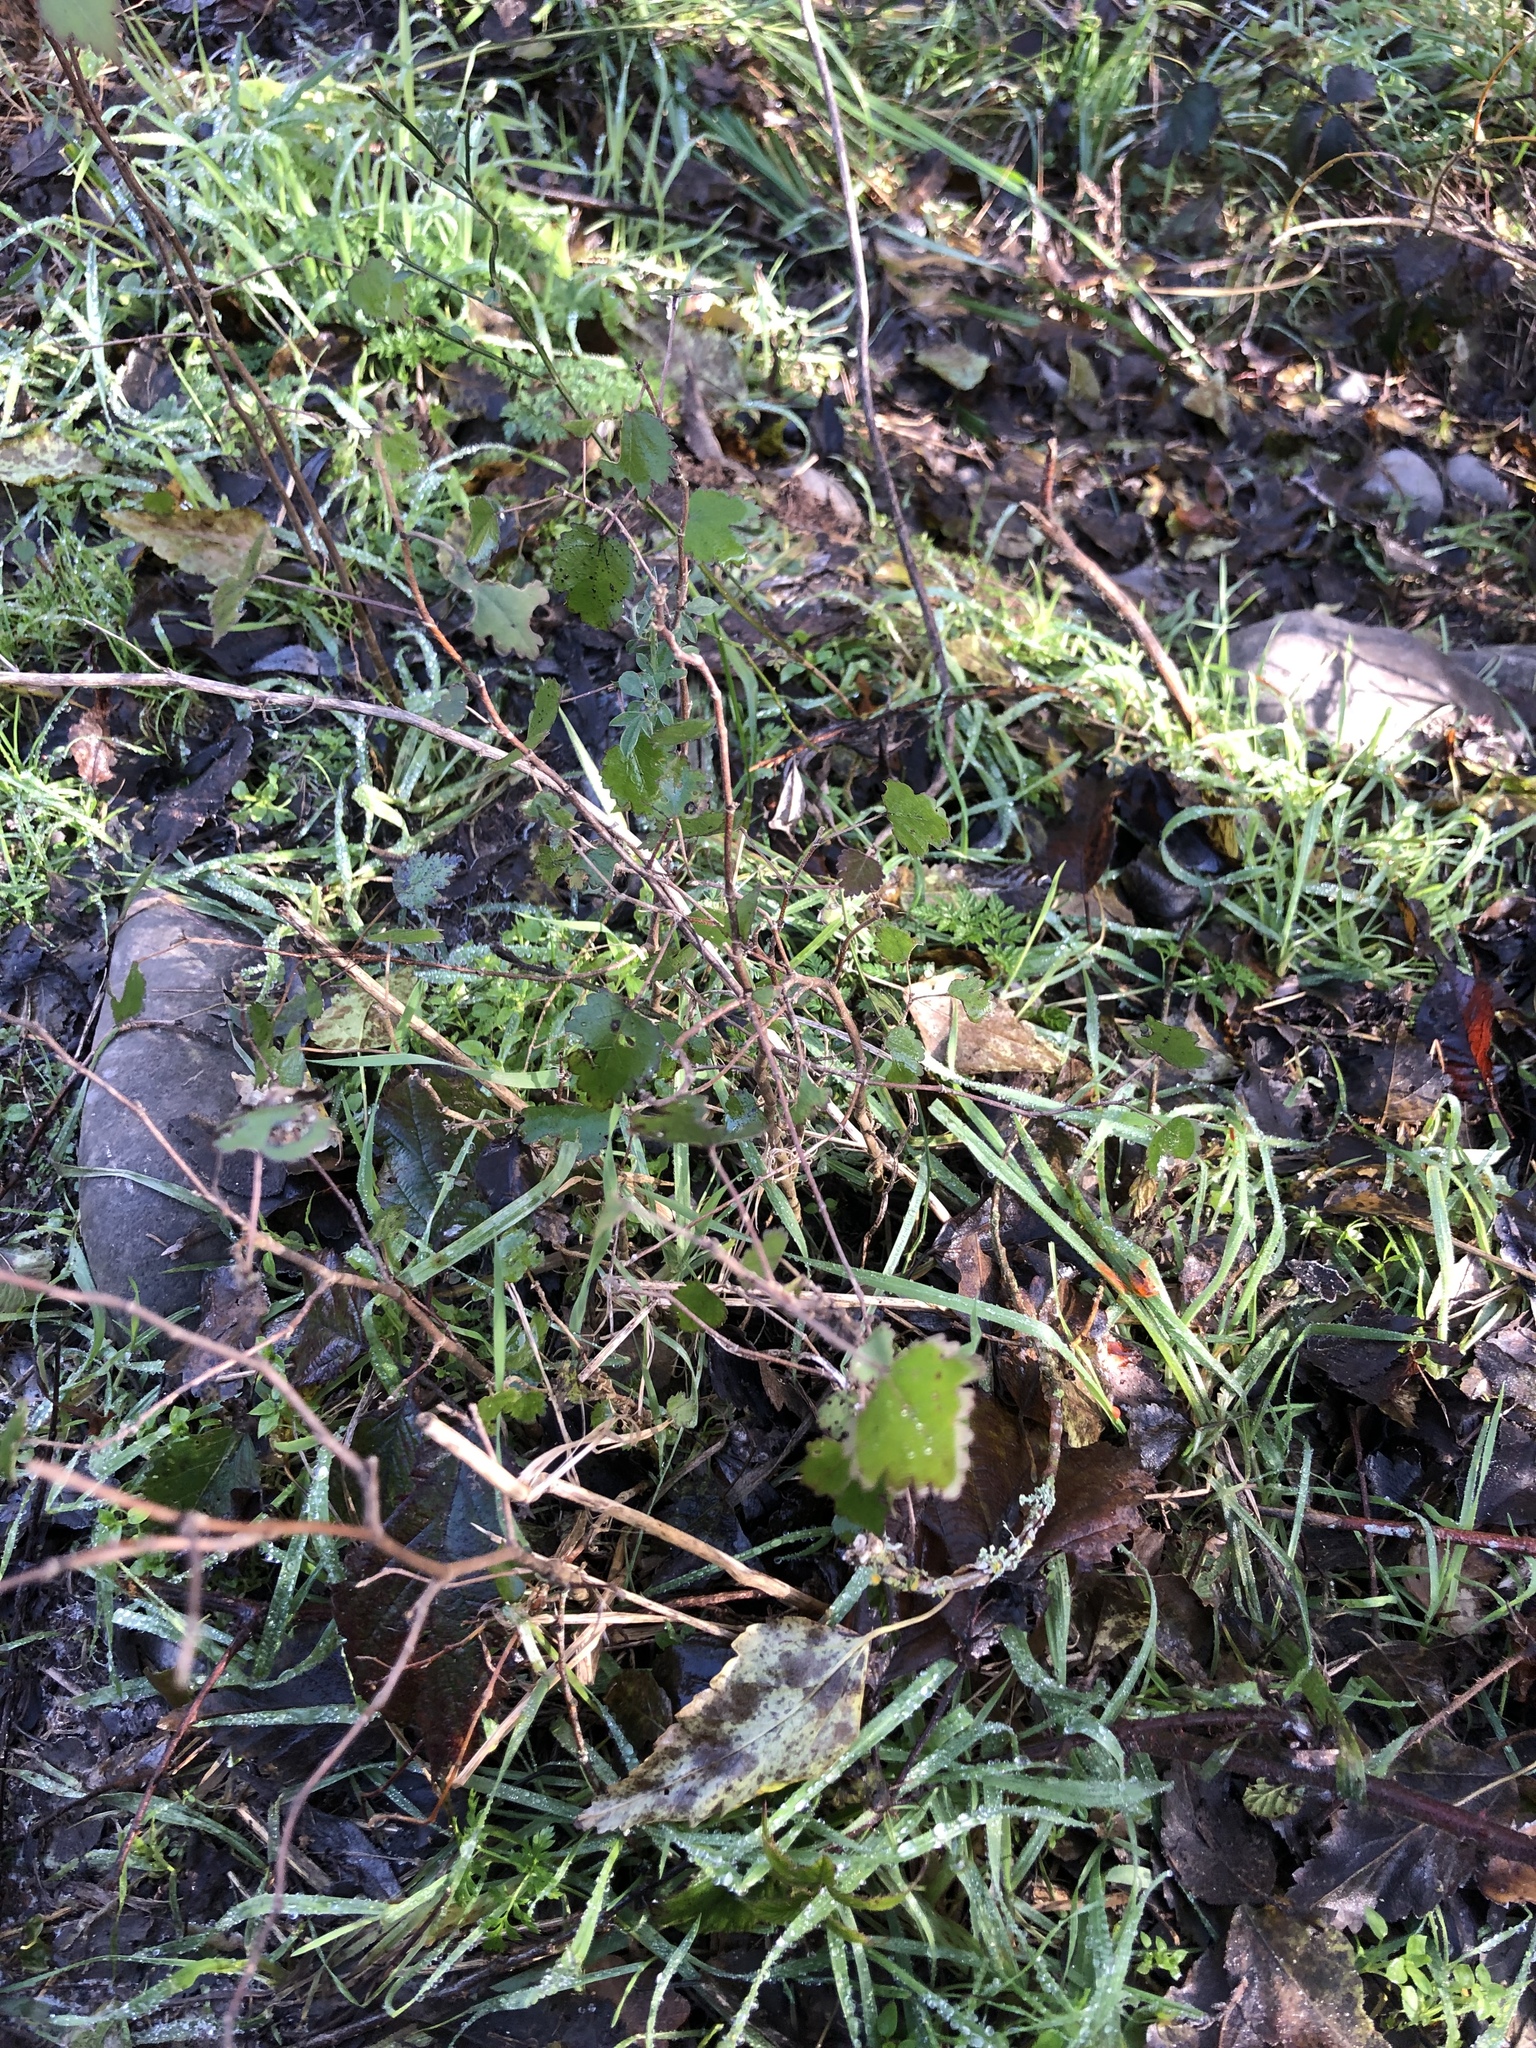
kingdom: Plantae
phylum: Tracheophyta
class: Magnoliopsida
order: Malvales
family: Malvaceae
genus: Plagianthus
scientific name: Plagianthus regius
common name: Manatu
